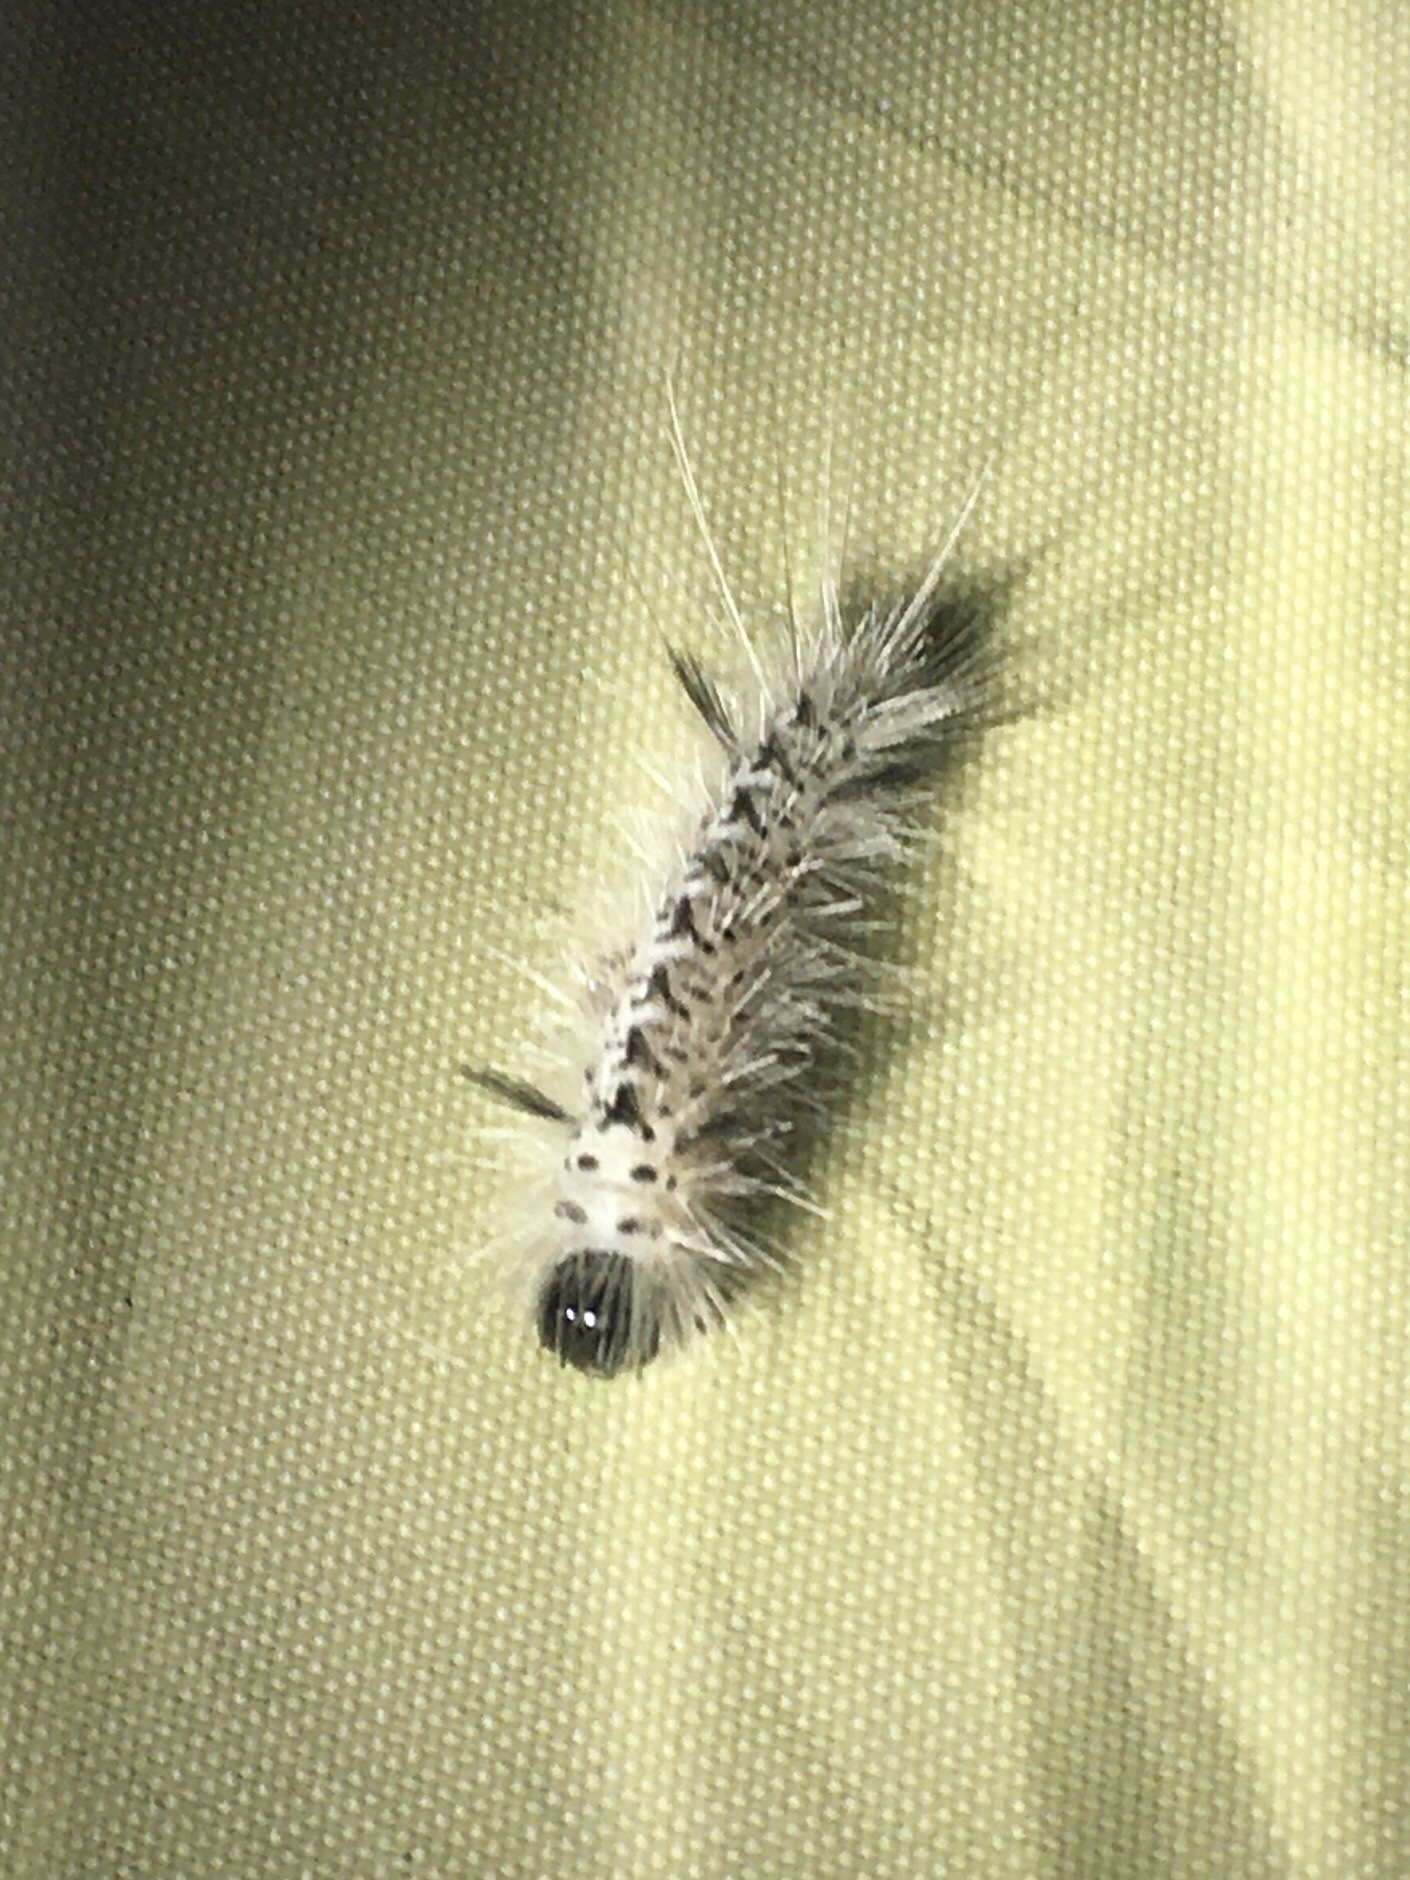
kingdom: Animalia
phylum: Arthropoda
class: Insecta
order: Lepidoptera
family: Erebidae
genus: Lophocampa
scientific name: Lophocampa caryae
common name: Hickory tussock moth
